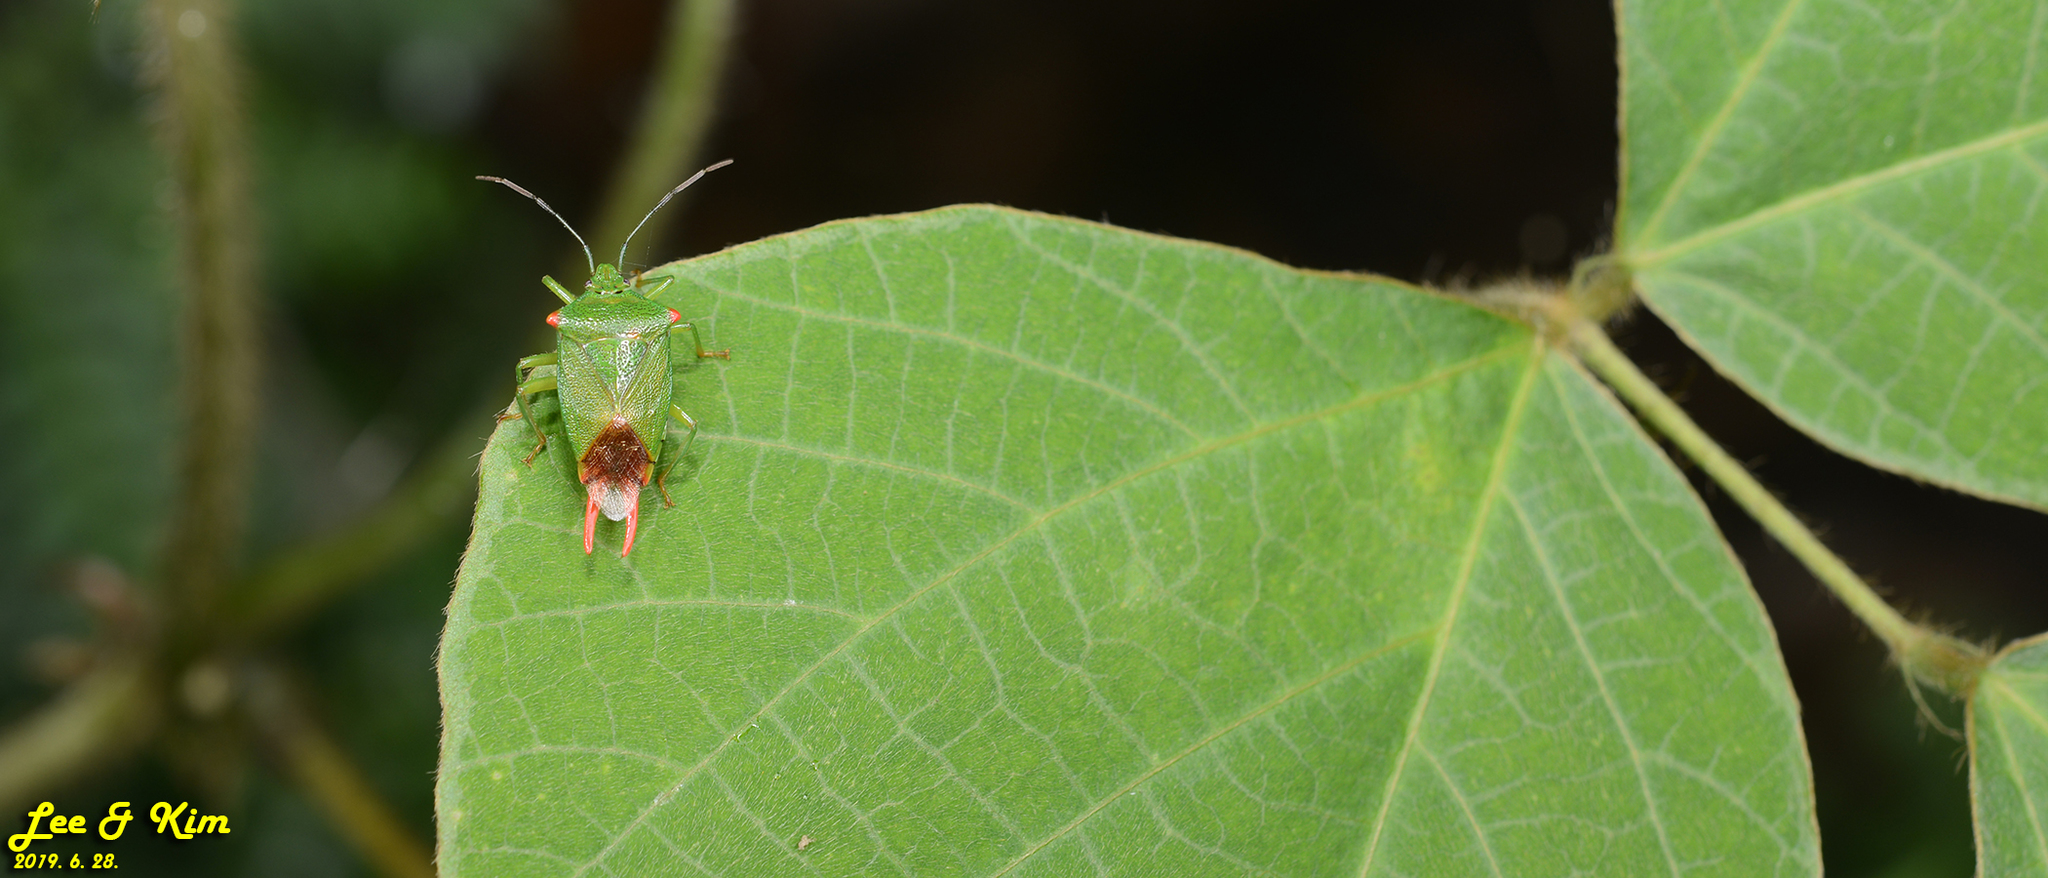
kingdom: Animalia
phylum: Arthropoda
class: Insecta
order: Hemiptera
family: Acanthosomatidae
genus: Acanthosoma
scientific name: Acanthosoma labiduroides
